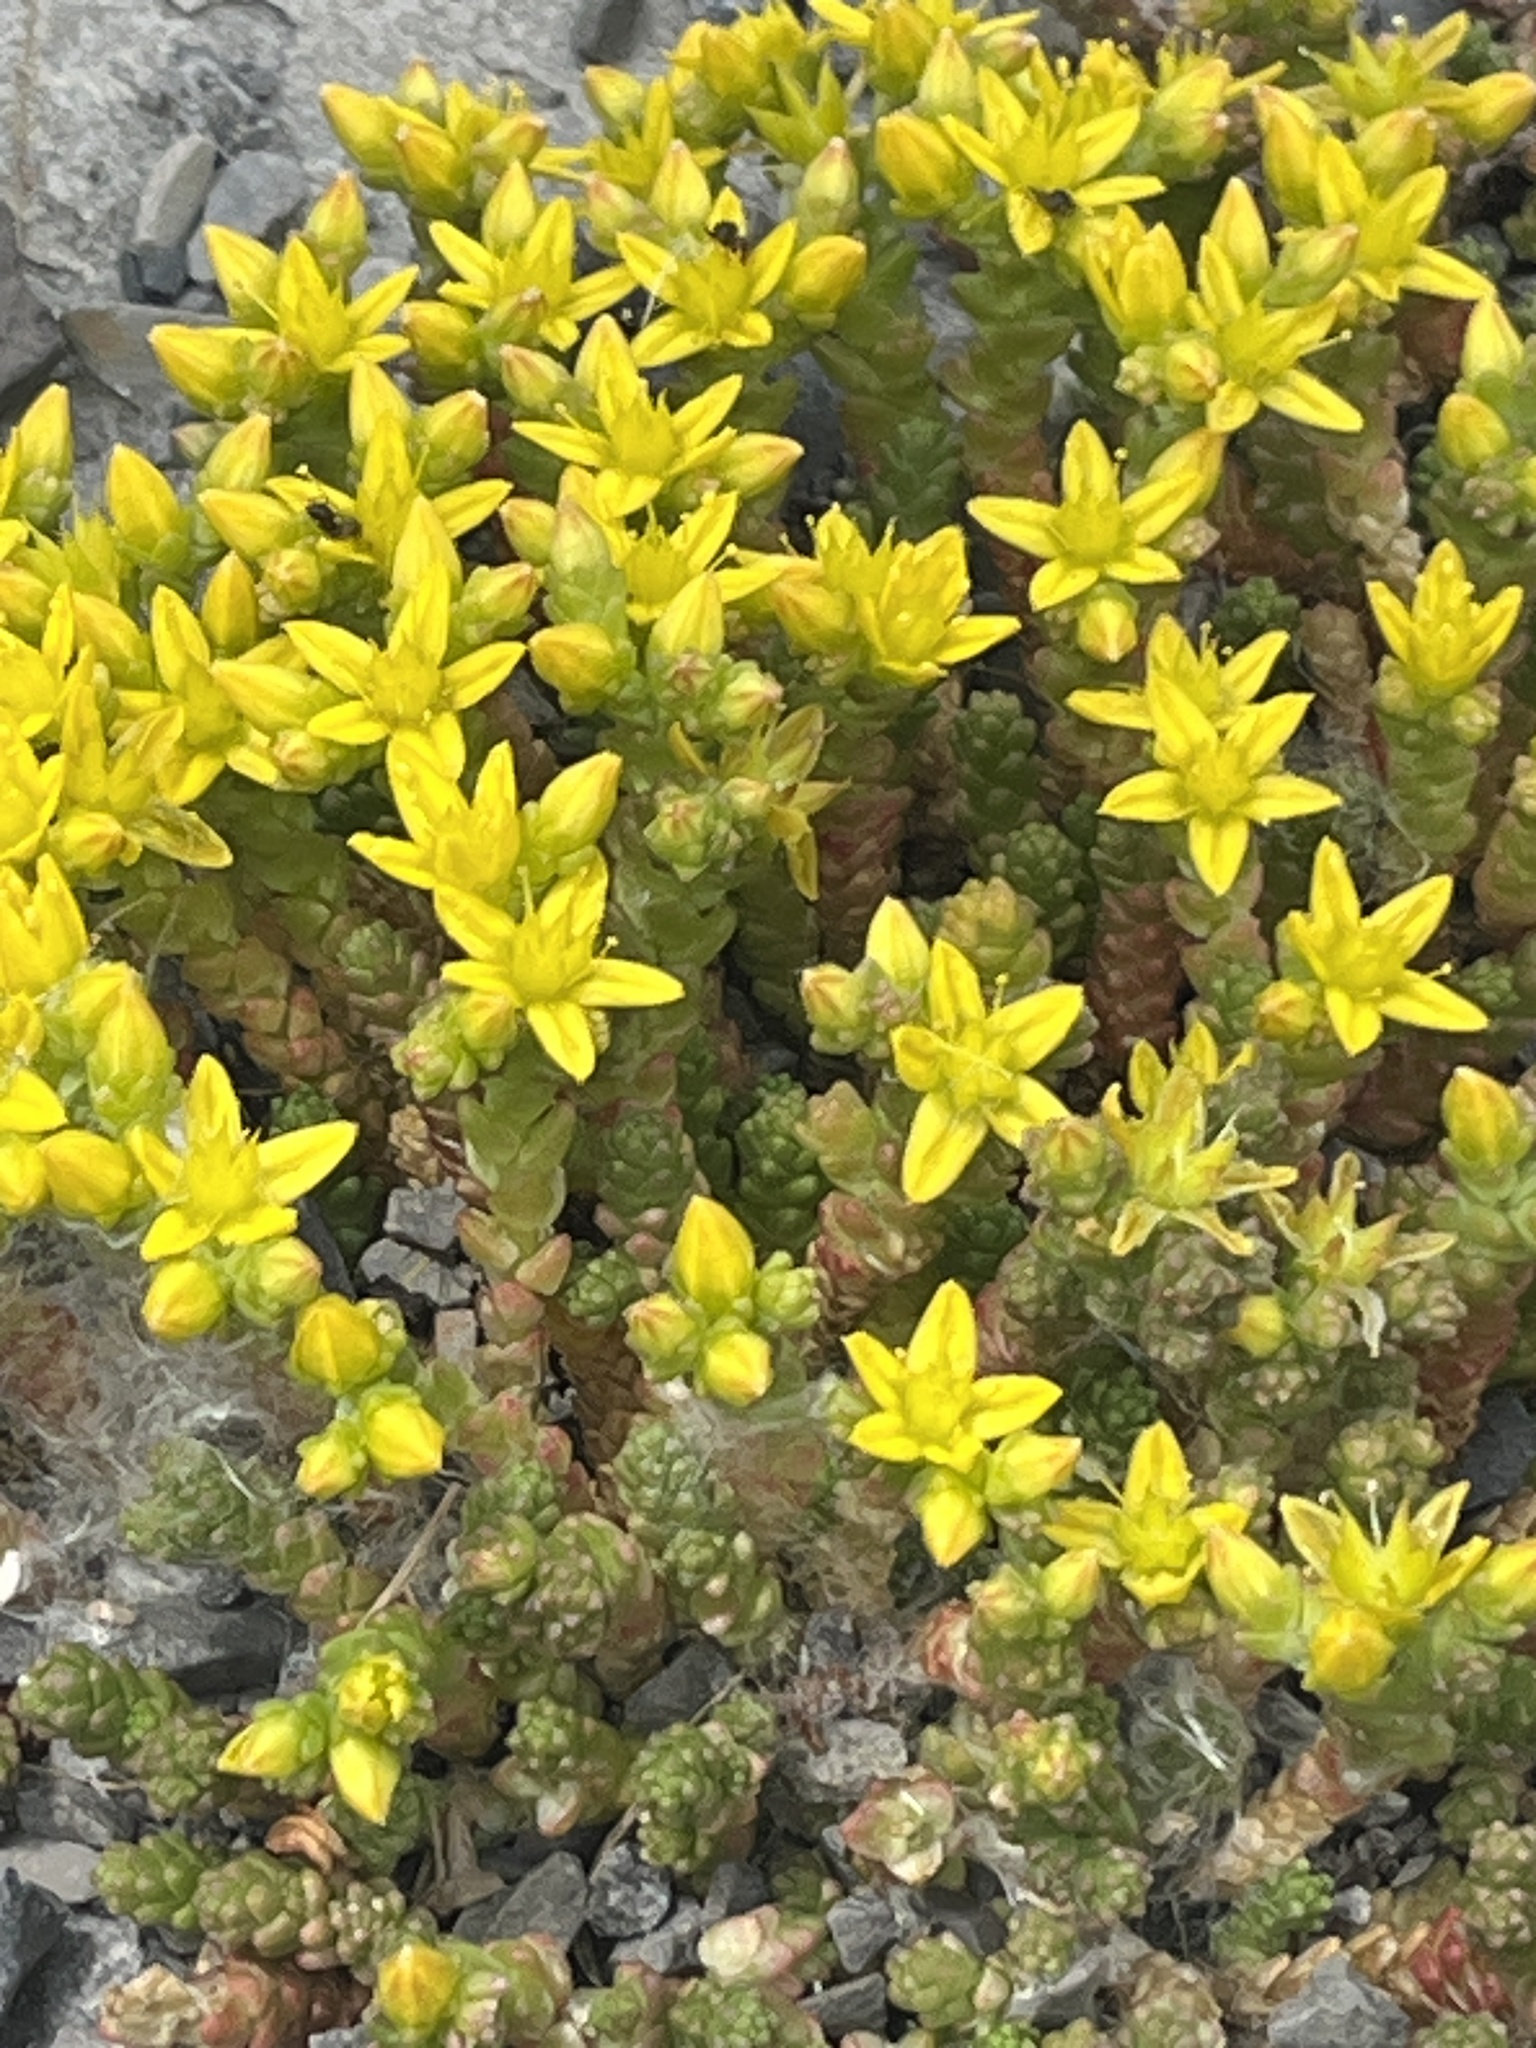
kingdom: Plantae
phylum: Tracheophyta
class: Magnoliopsida
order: Saxifragales
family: Crassulaceae
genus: Sedum
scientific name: Sedum acre
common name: Biting stonecrop
